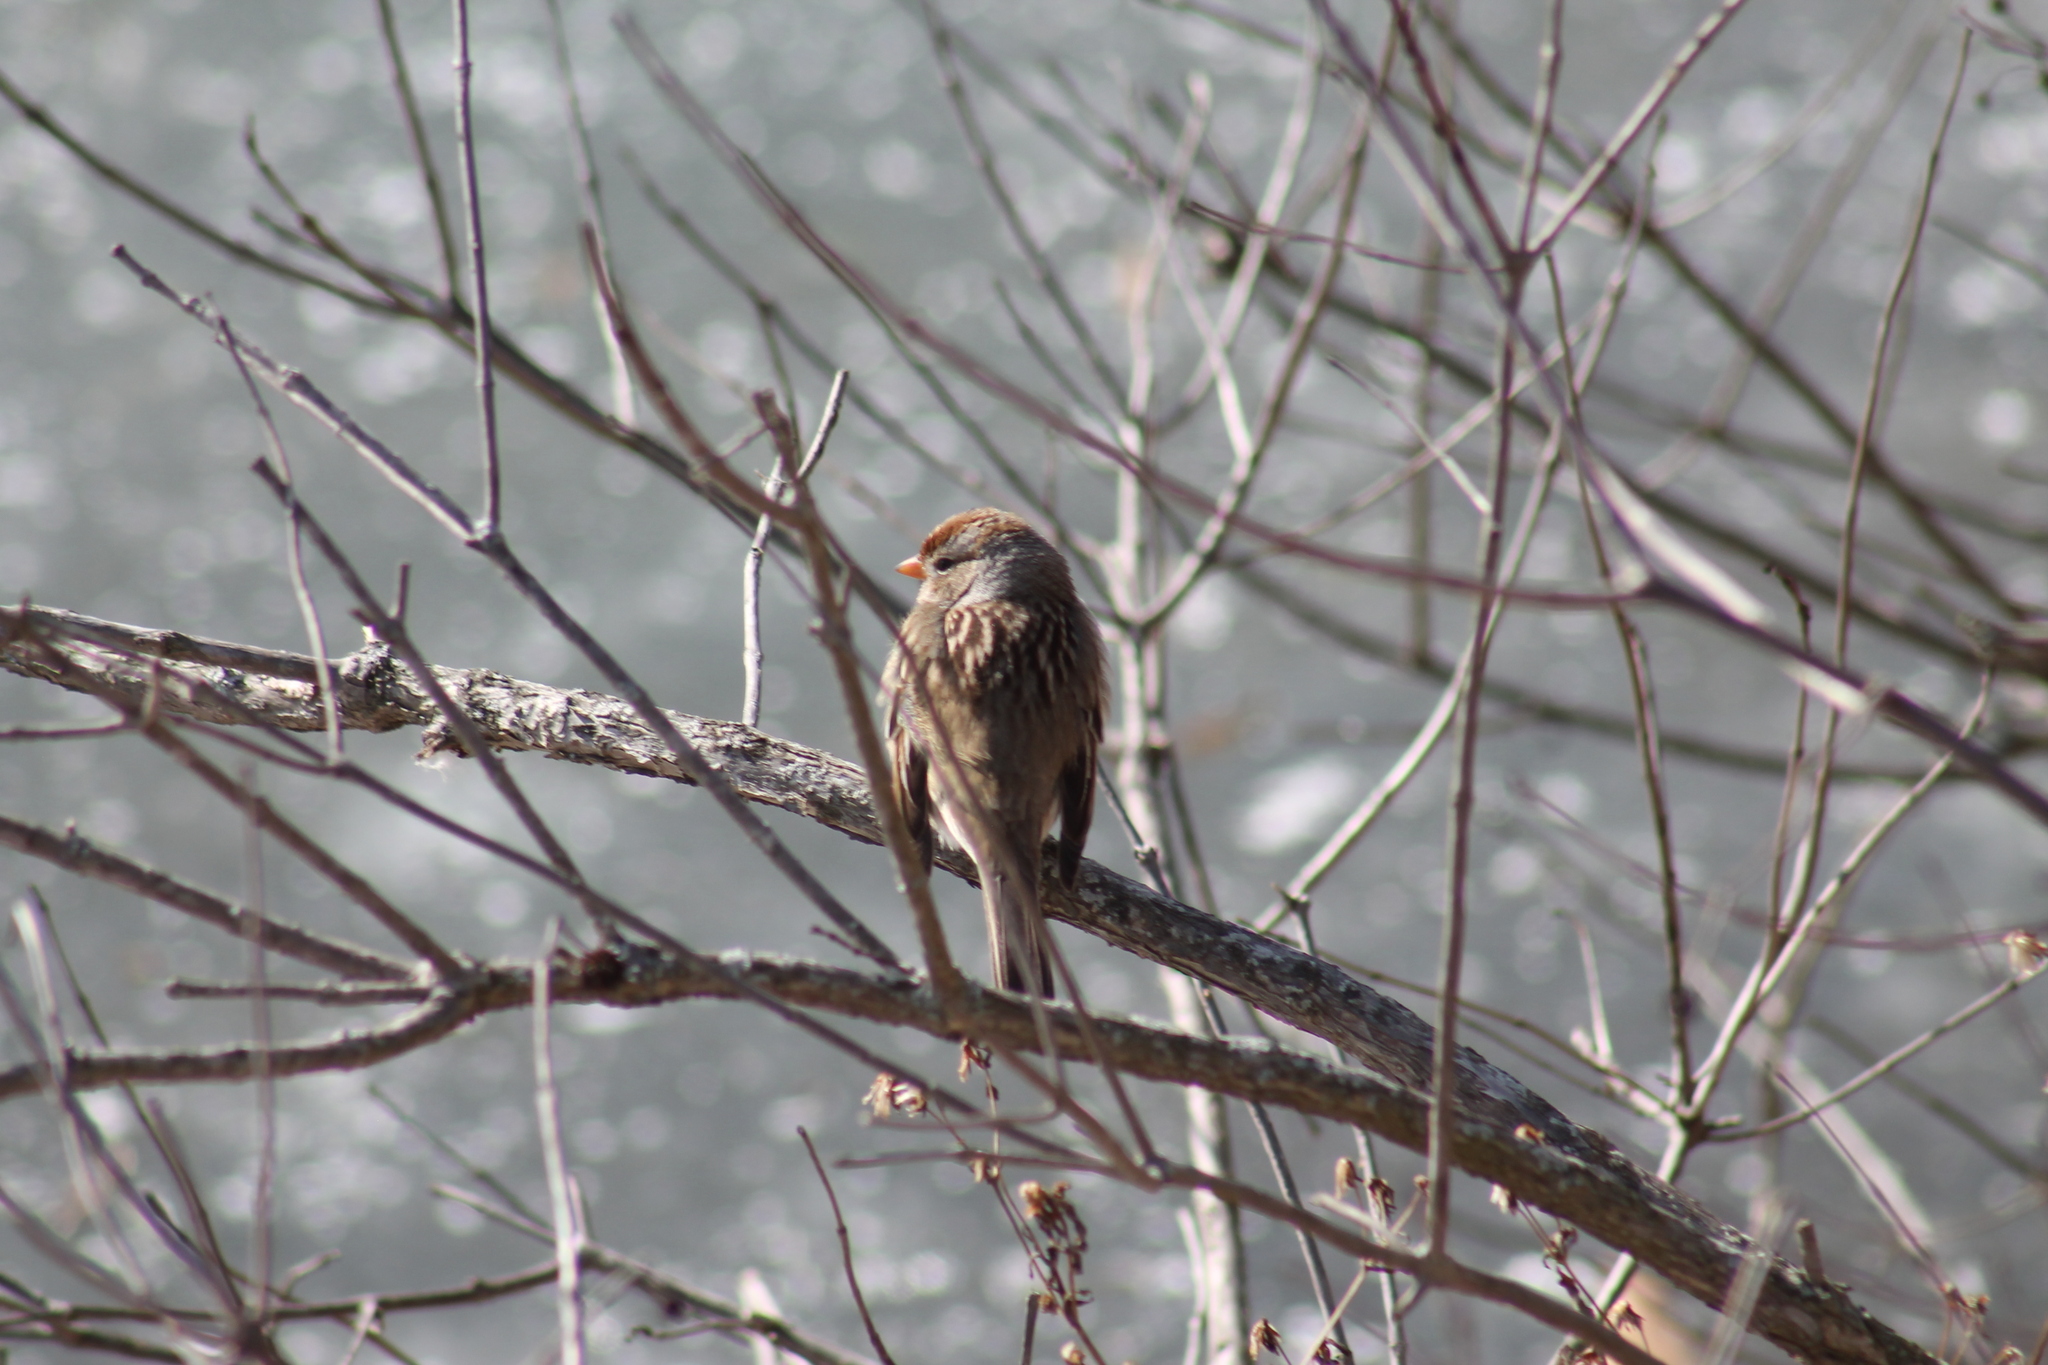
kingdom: Animalia
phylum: Chordata
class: Aves
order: Passeriformes
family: Passerellidae
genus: Zonotrichia
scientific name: Zonotrichia leucophrys
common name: White-crowned sparrow
